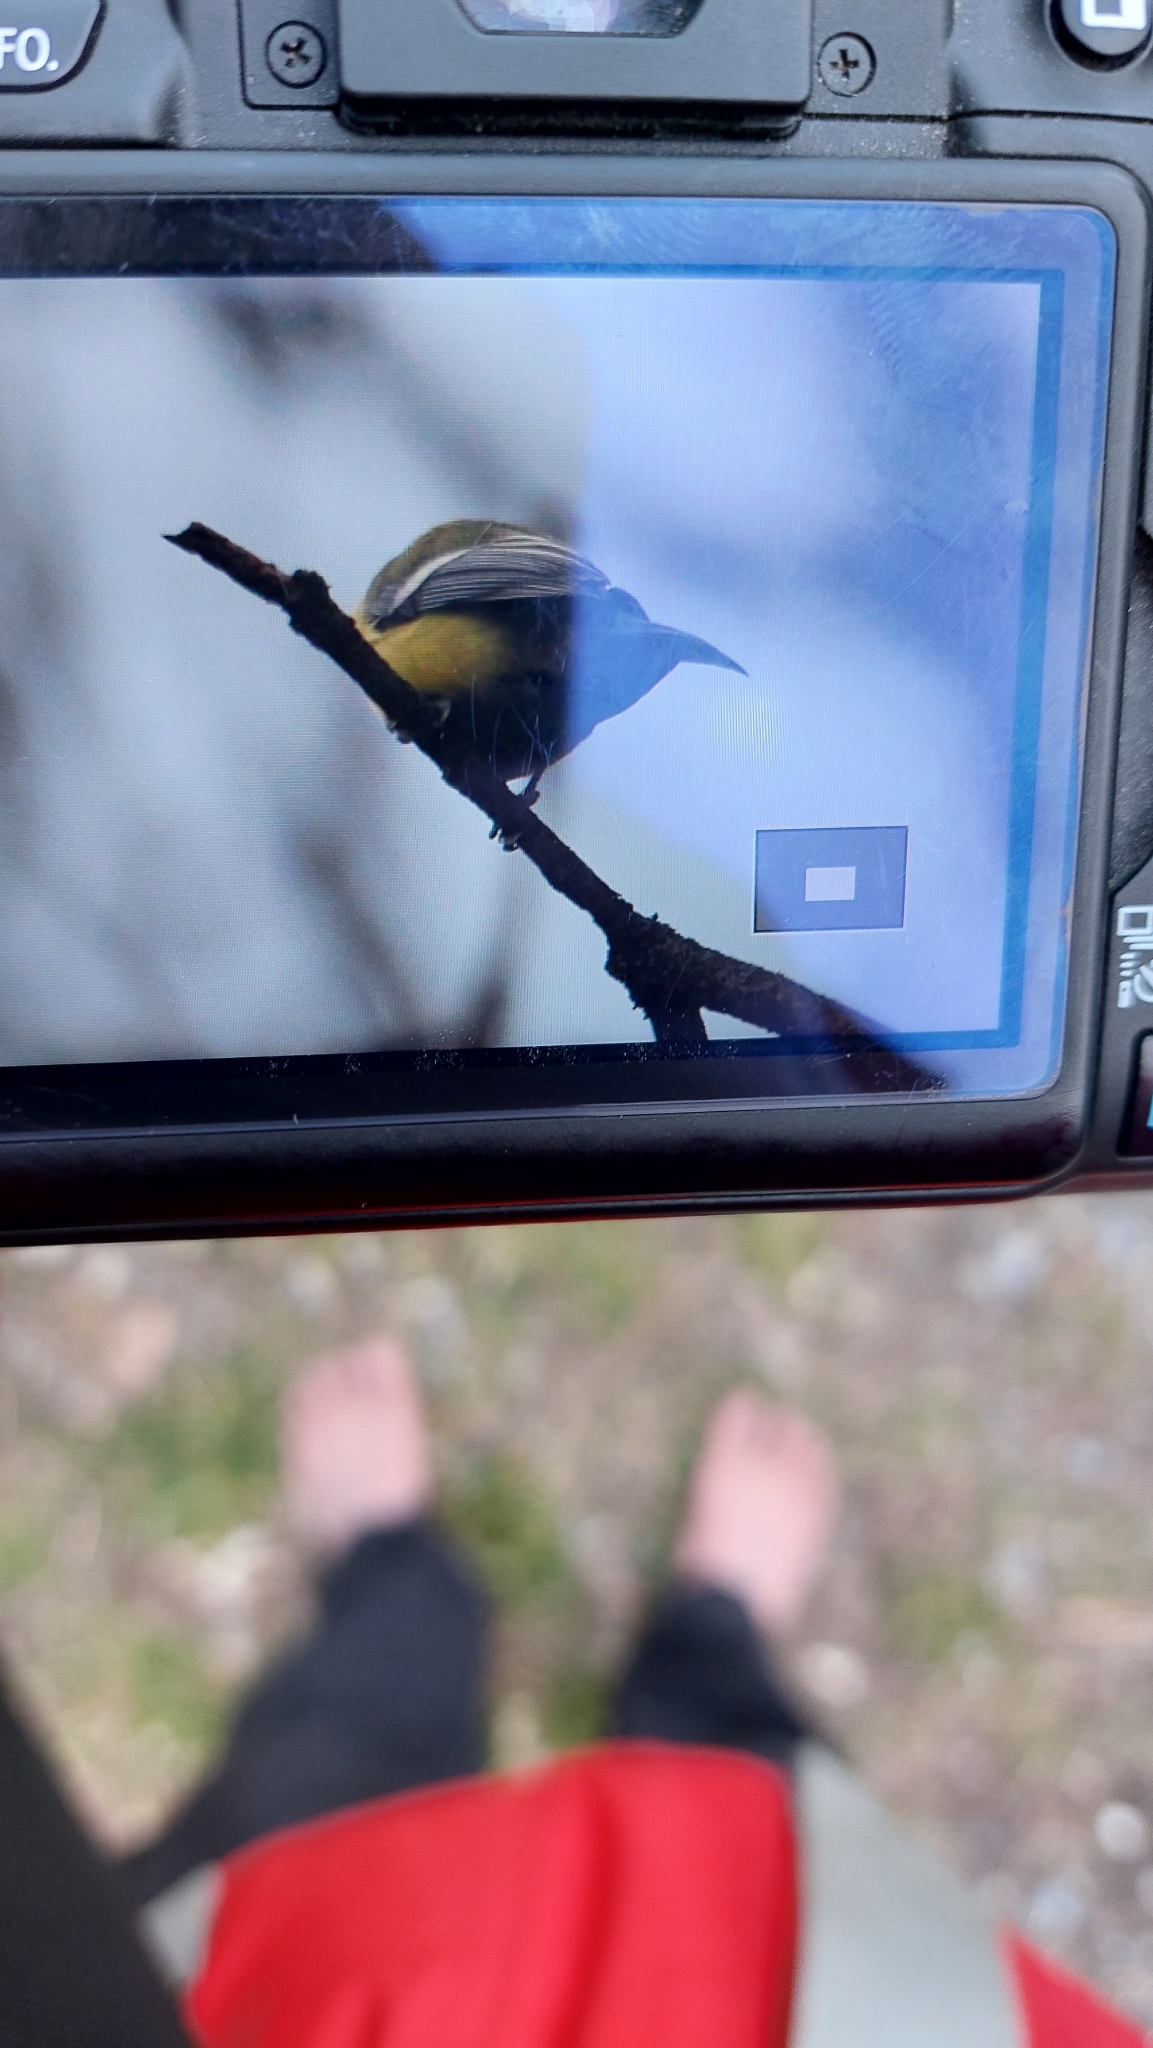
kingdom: Animalia
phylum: Chordata
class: Aves
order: Passeriformes
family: Paridae
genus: Parus
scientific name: Parus major
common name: Great tit
